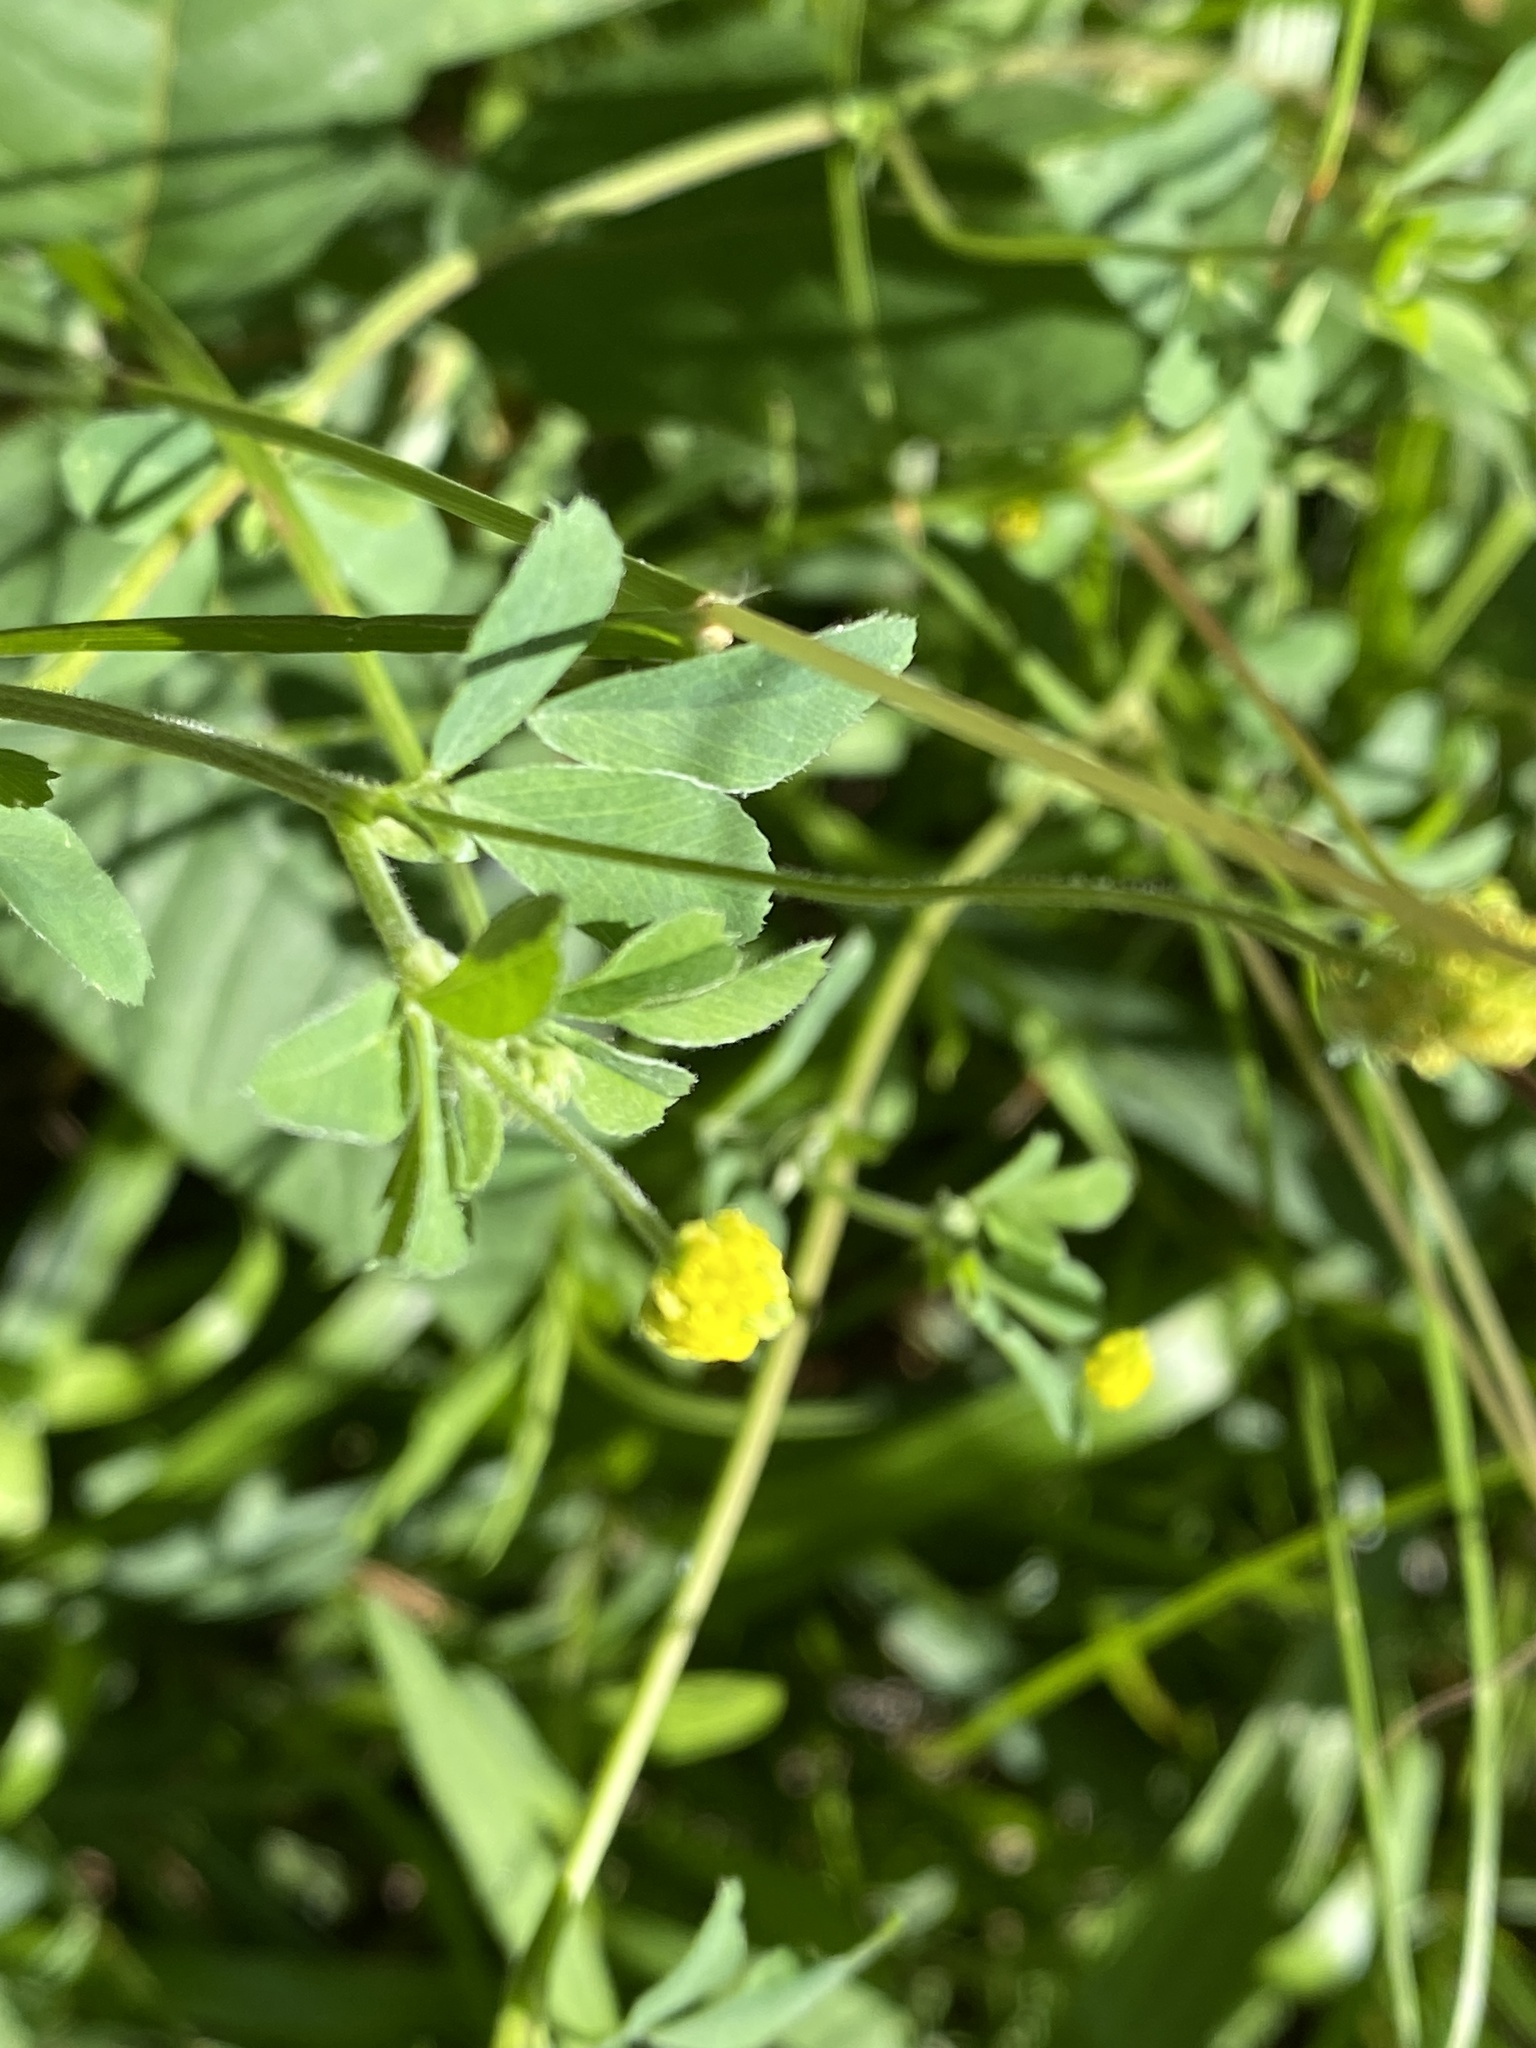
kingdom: Plantae
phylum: Tracheophyta
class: Magnoliopsida
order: Fabales
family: Fabaceae
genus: Medicago
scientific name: Medicago lupulina
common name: Black medick
